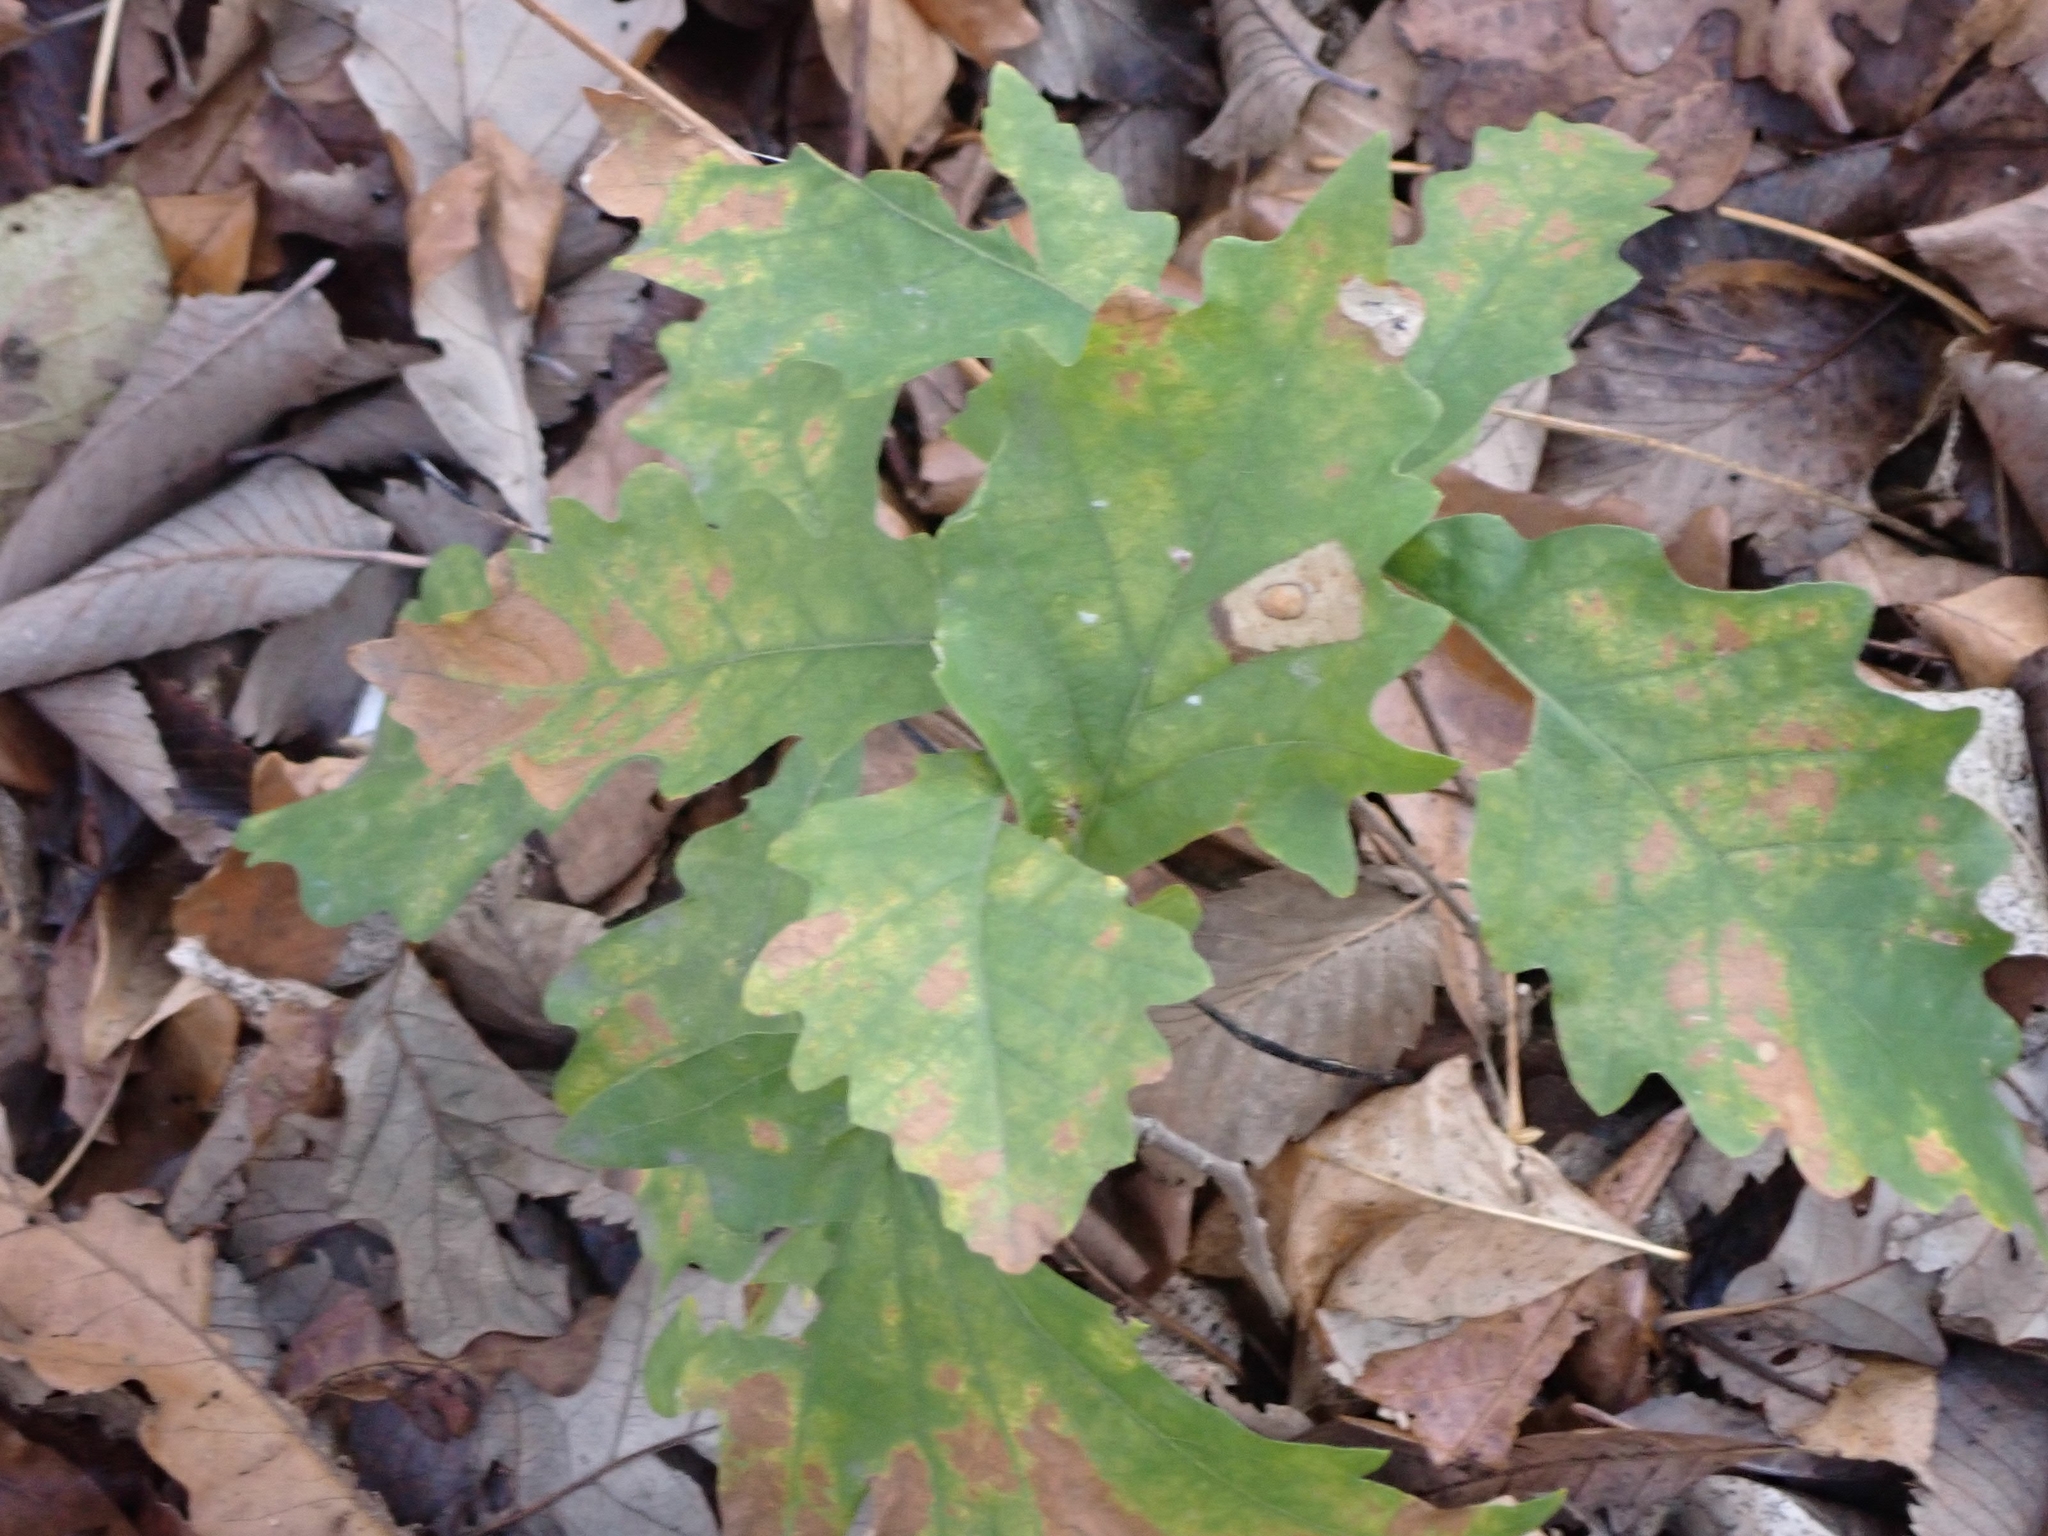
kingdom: Plantae
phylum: Tracheophyta
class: Magnoliopsida
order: Fagales
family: Fagaceae
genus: Quercus
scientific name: Quercus macrocarpa
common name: Bur oak
